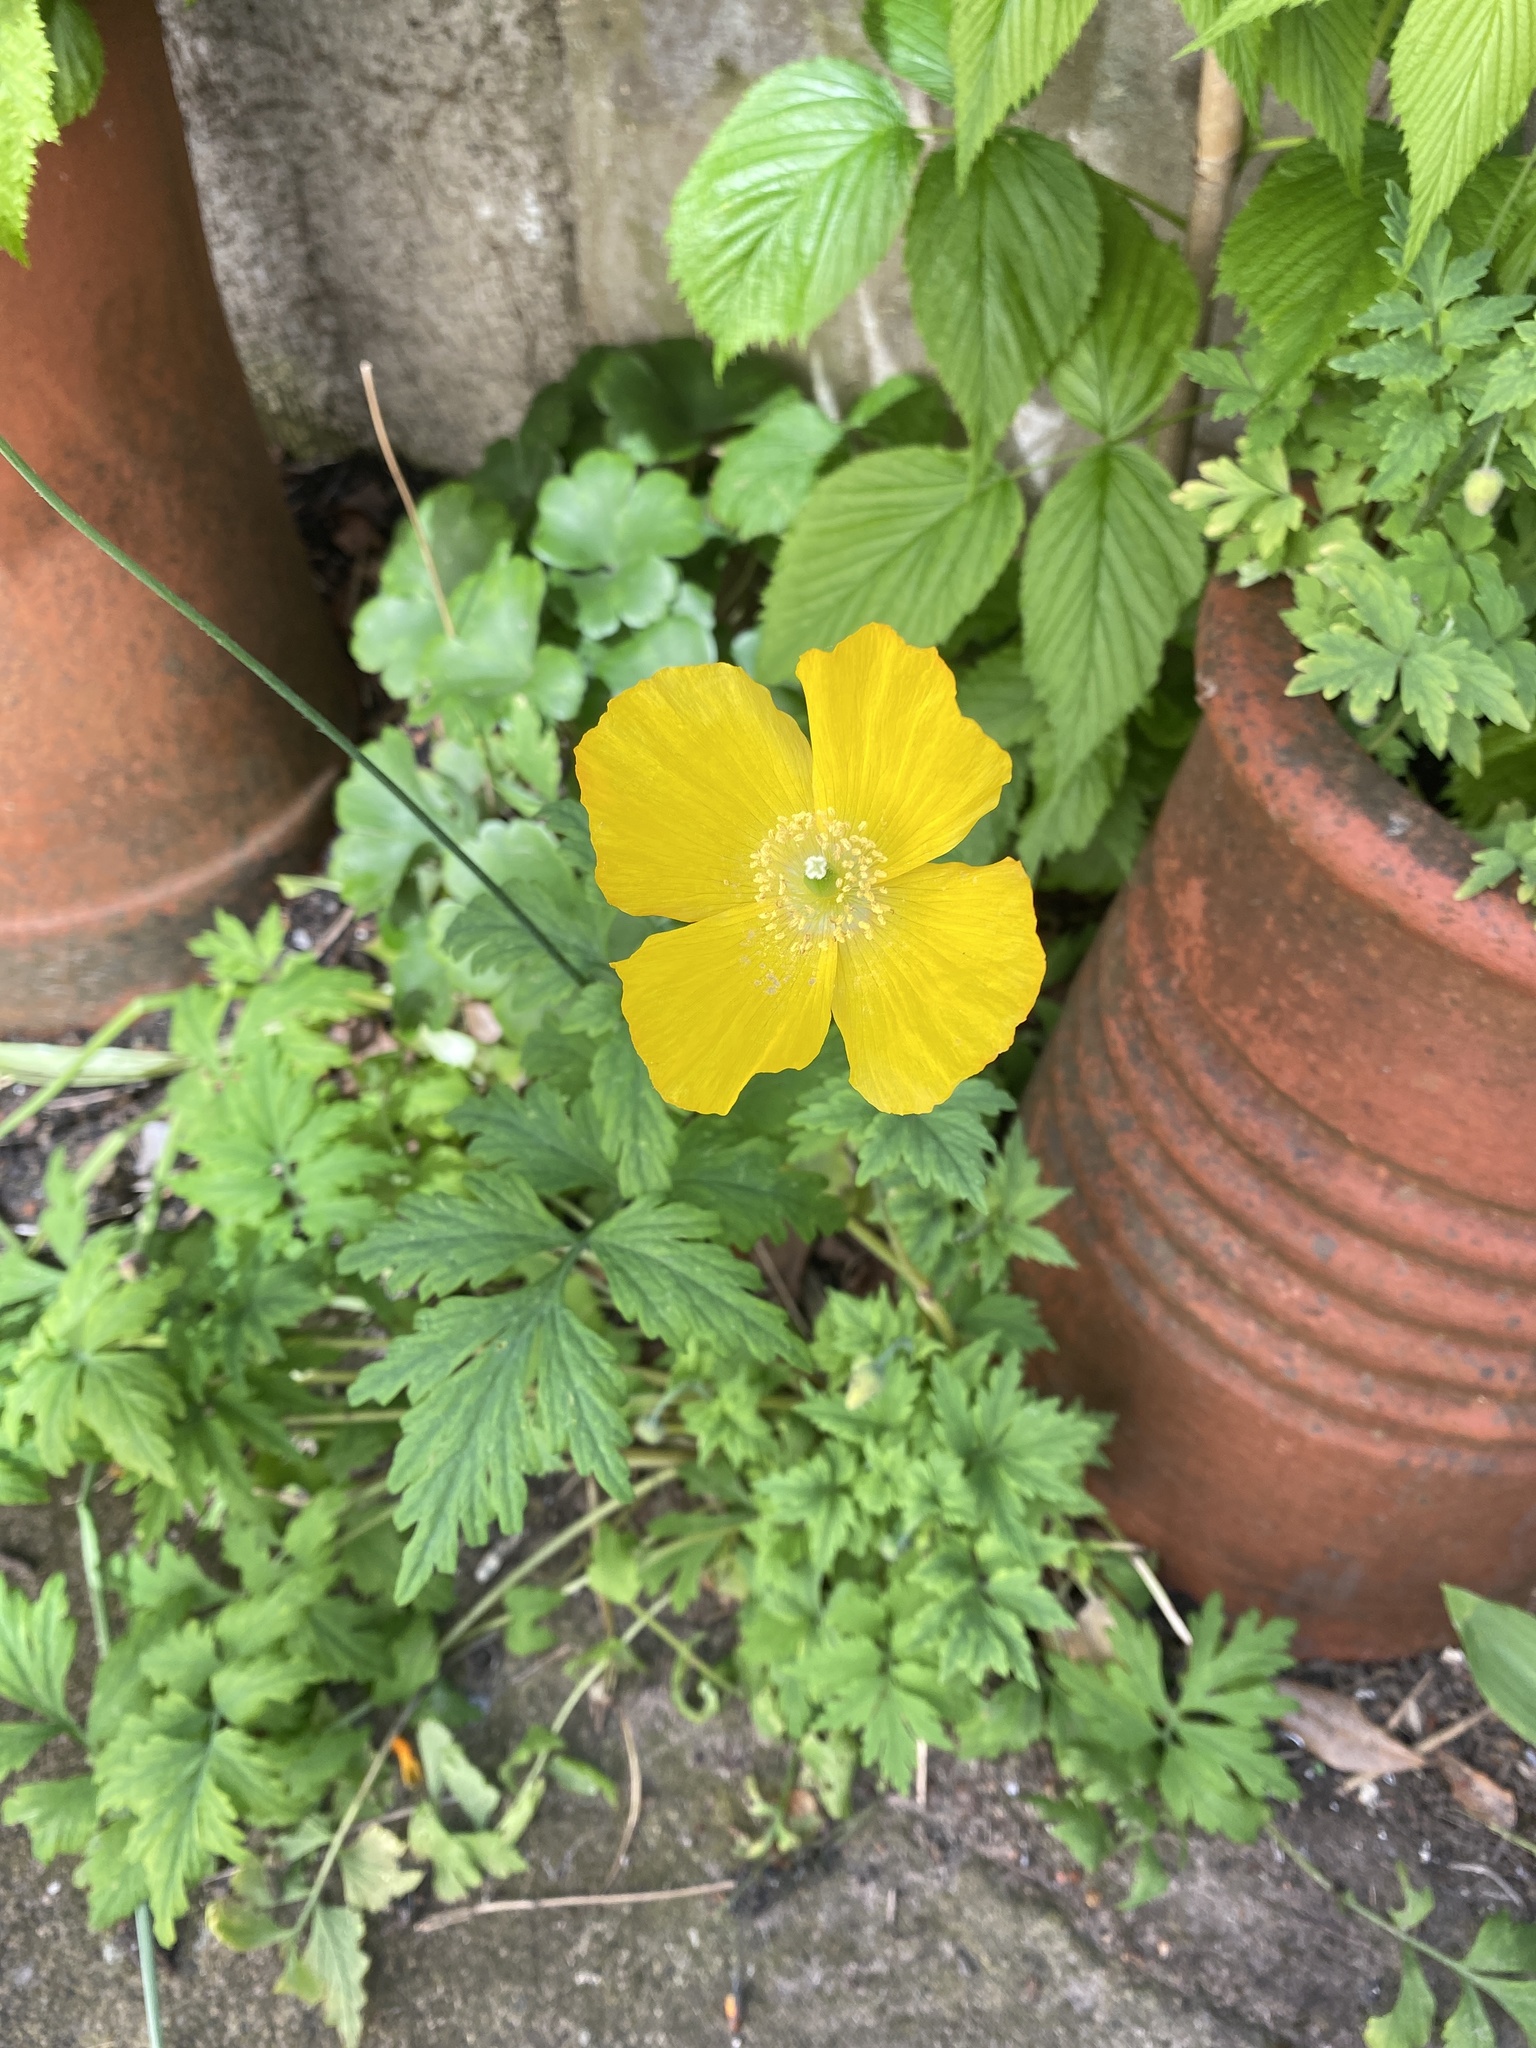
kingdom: Plantae
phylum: Tracheophyta
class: Magnoliopsida
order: Ranunculales
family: Papaveraceae
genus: Papaver
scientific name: Papaver cambricum
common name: Poppy
